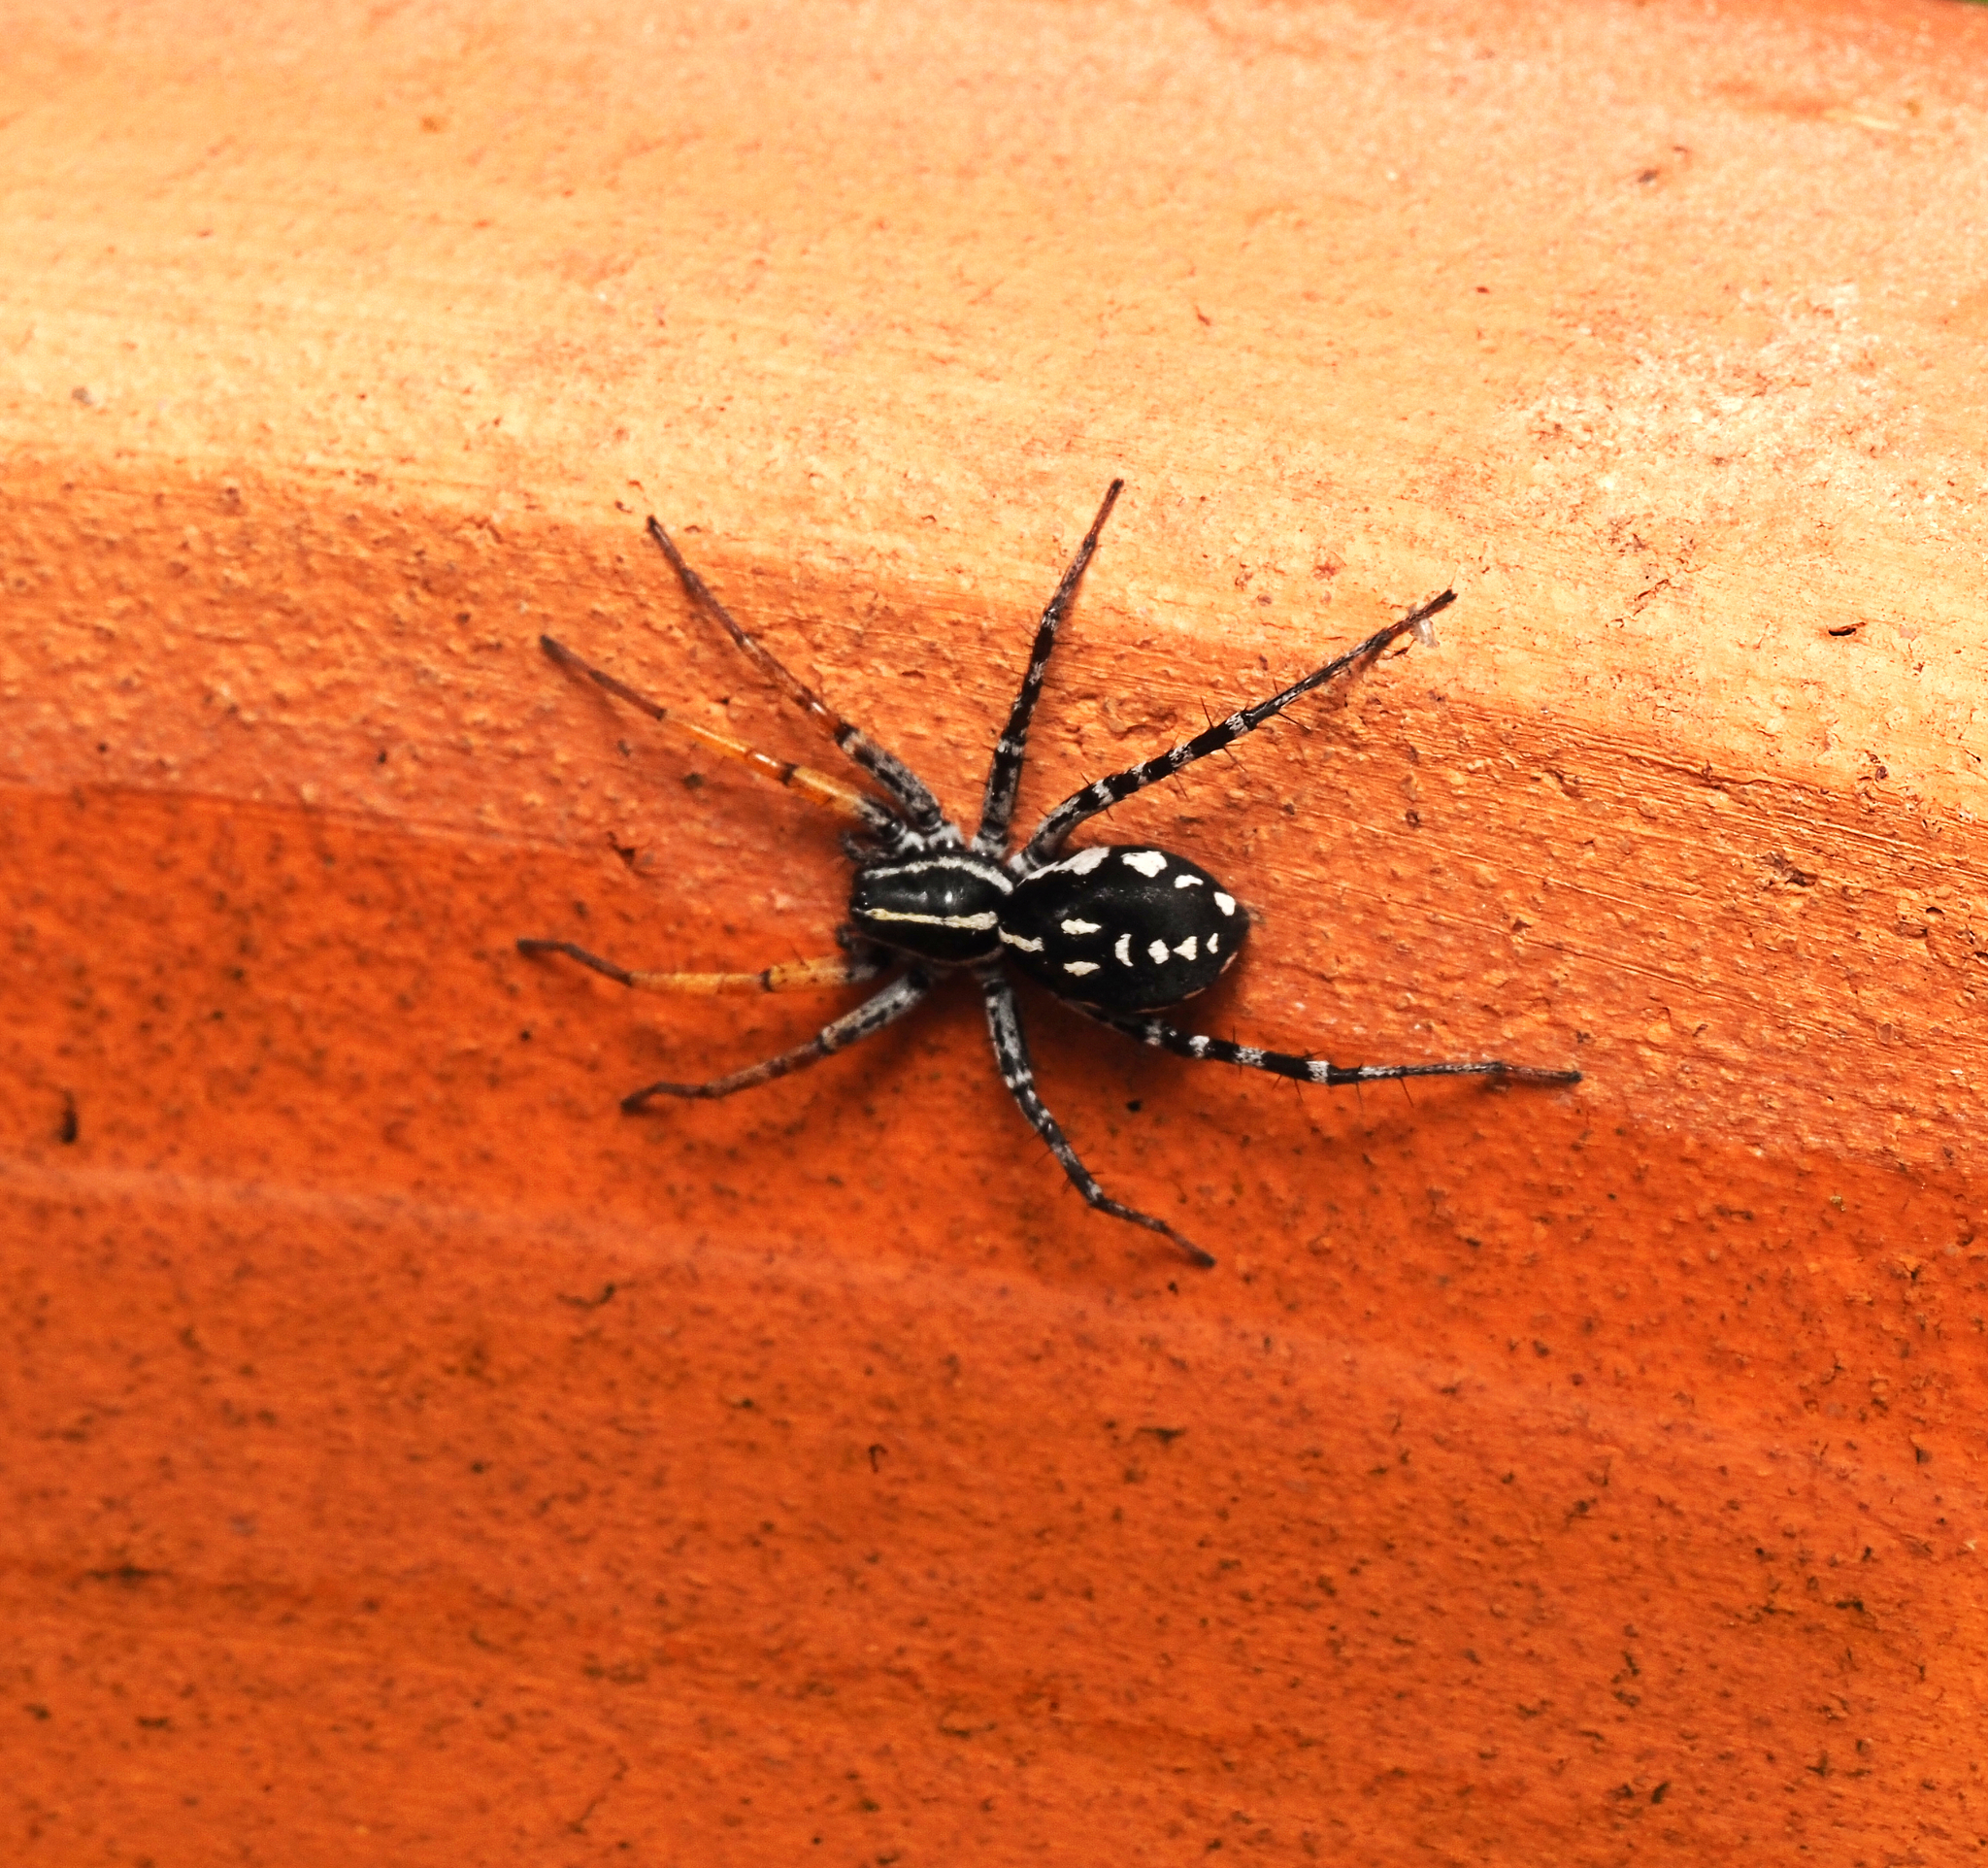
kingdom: Animalia
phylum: Arthropoda
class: Arachnida
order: Araneae
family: Corinnidae
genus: Nyssus
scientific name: Nyssus coloripes
